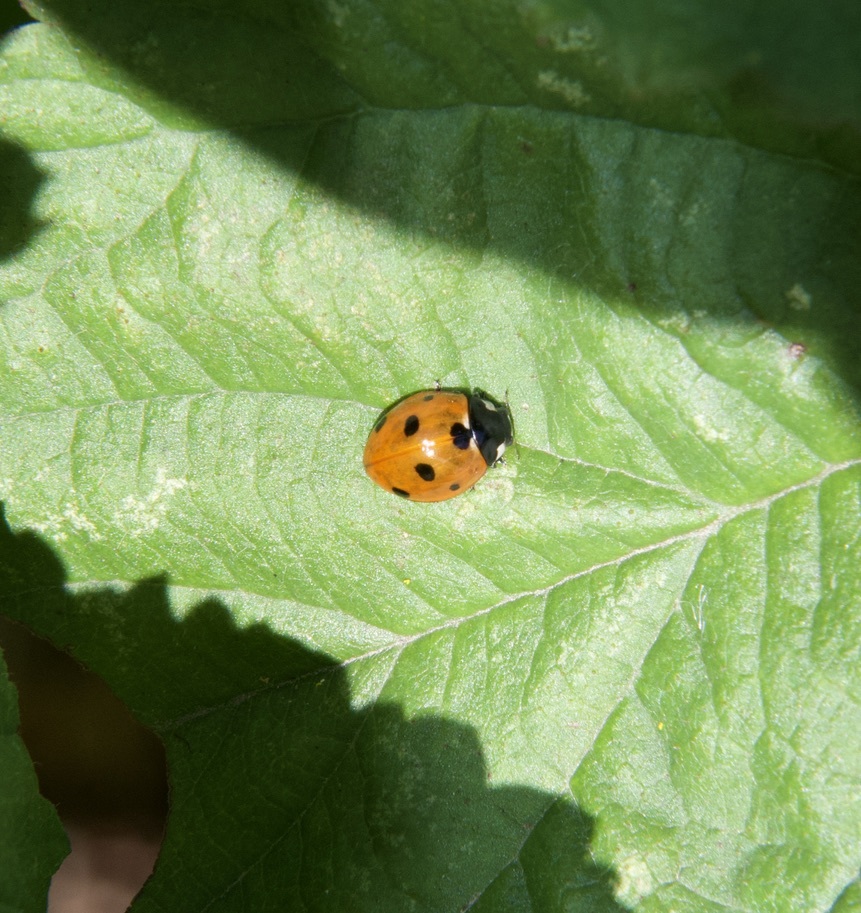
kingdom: Animalia
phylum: Arthropoda
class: Insecta
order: Coleoptera
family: Coccinellidae
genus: Coccinella
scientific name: Coccinella septempunctata
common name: Sevenspotted lady beetle
